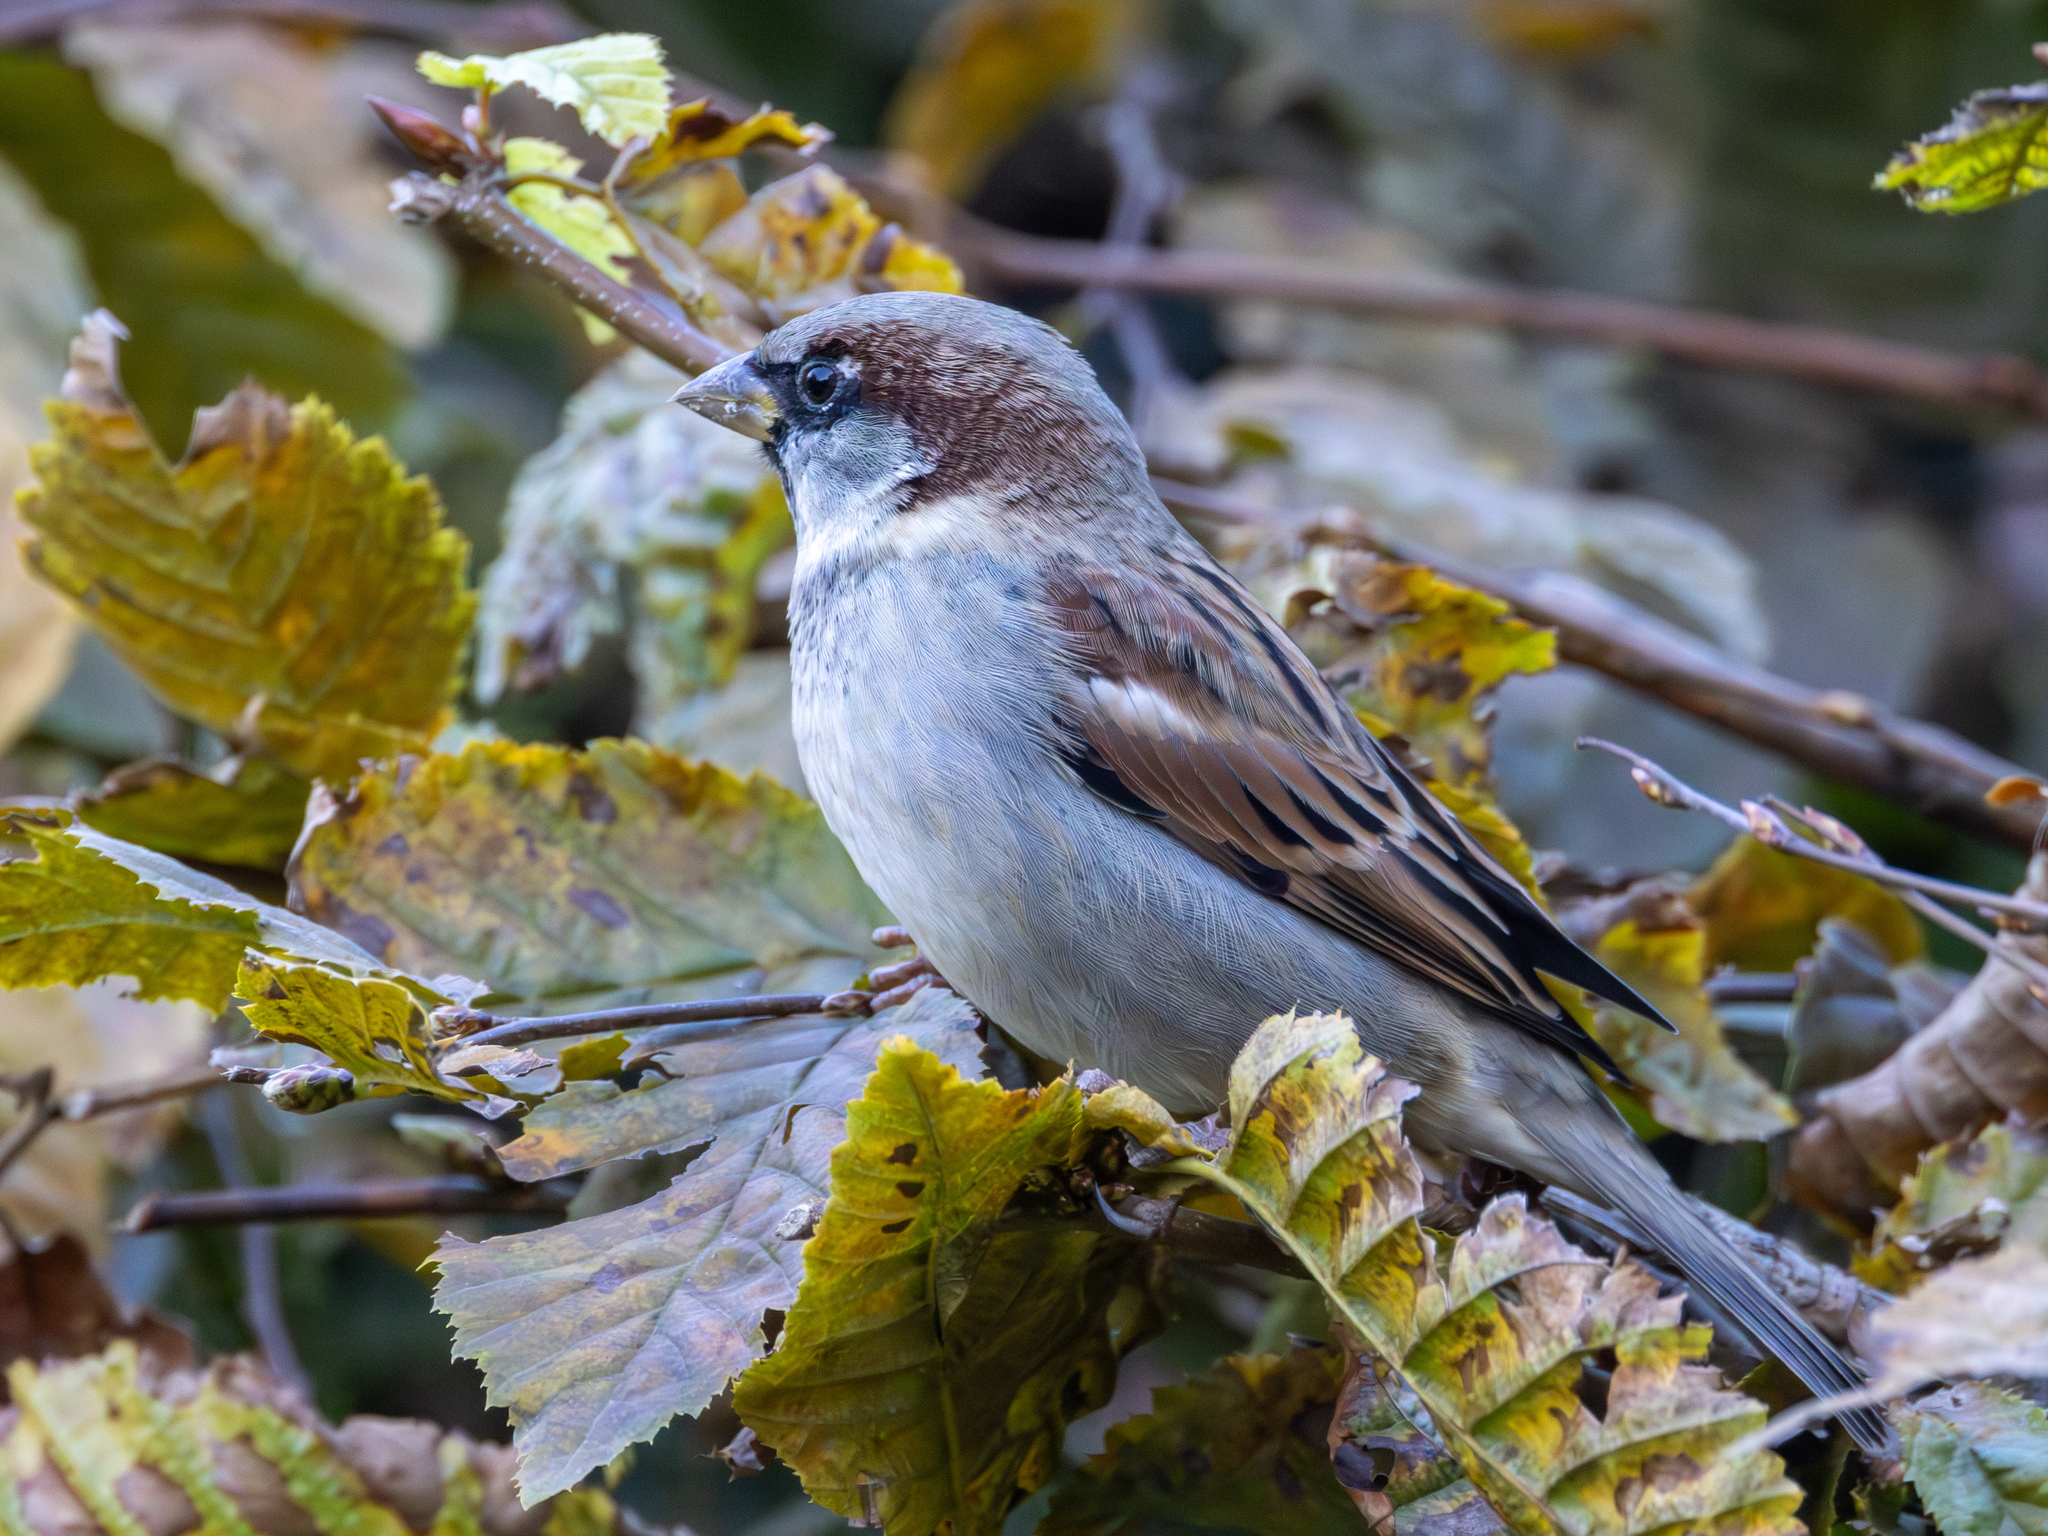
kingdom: Animalia
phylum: Chordata
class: Aves
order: Passeriformes
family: Passeridae
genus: Passer
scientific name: Passer domesticus
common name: House sparrow
